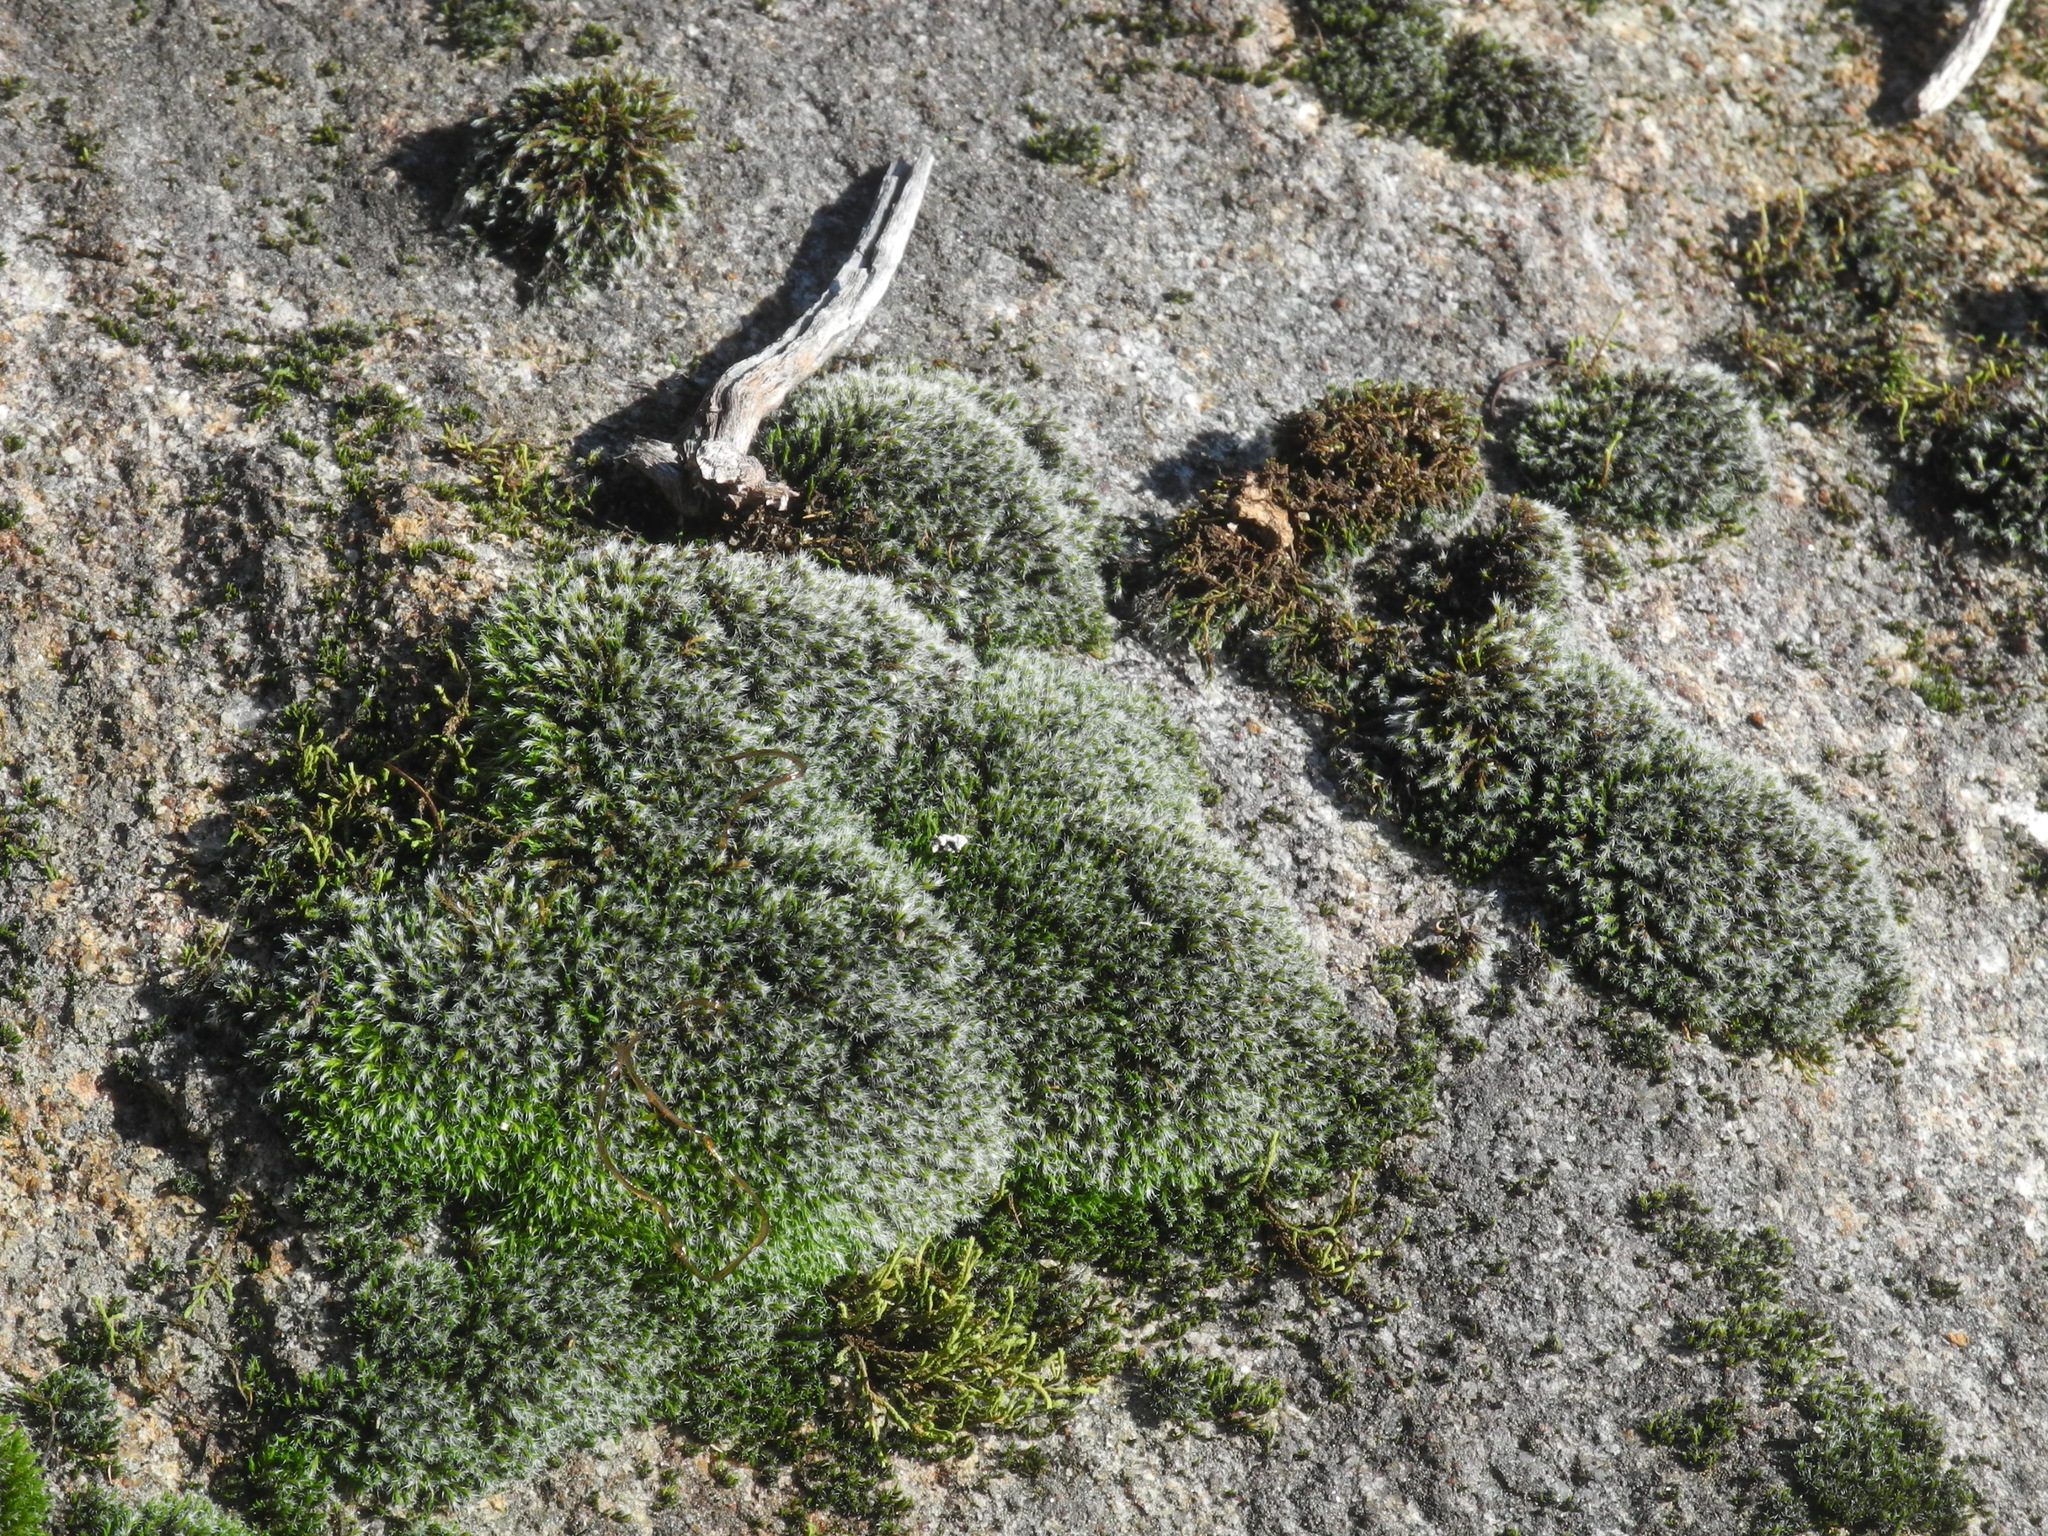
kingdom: Plantae
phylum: Bryophyta
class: Bryopsida
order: Grimmiales
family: Grimmiaceae
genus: Grimmia
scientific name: Grimmia laevigata
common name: Hoary grimmia
